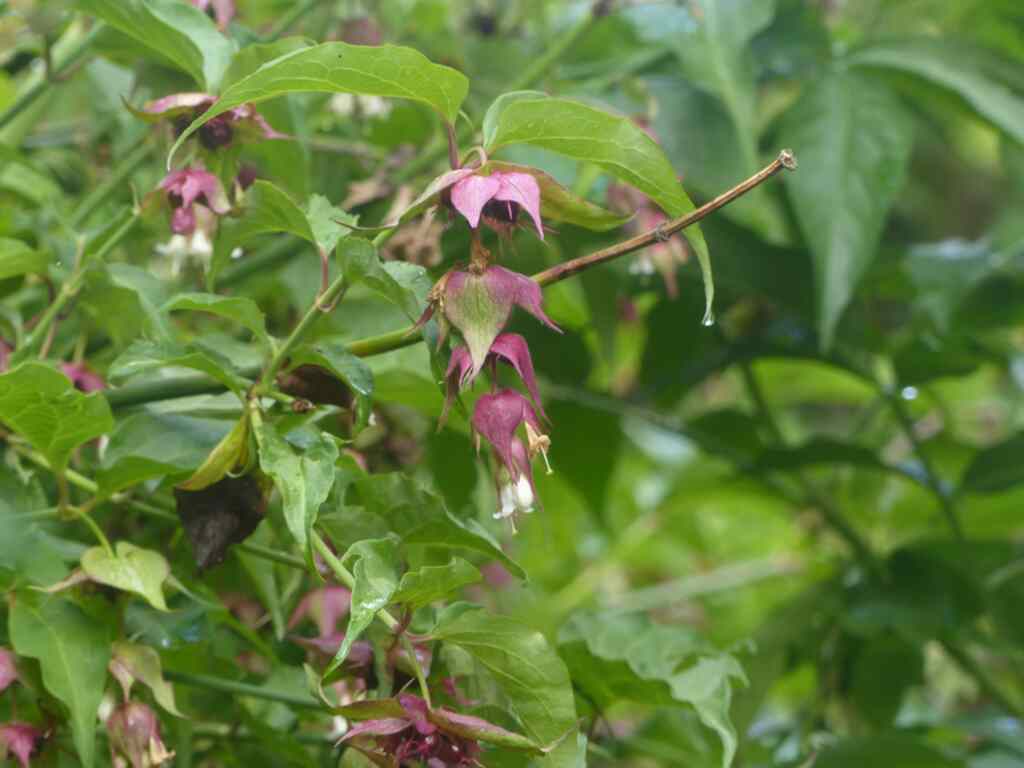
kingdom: Plantae
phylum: Tracheophyta
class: Magnoliopsida
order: Dipsacales
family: Caprifoliaceae
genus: Leycesteria
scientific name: Leycesteria formosa
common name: Himalayan honeysuckle
